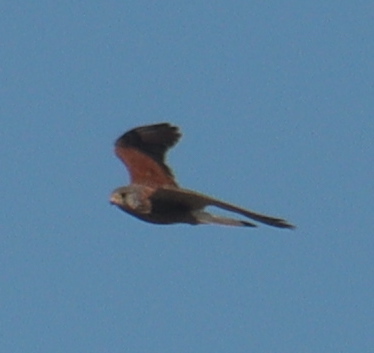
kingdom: Animalia
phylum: Chordata
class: Aves
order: Falconiformes
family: Falconidae
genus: Falco
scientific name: Falco tinnunculus
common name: Common kestrel
